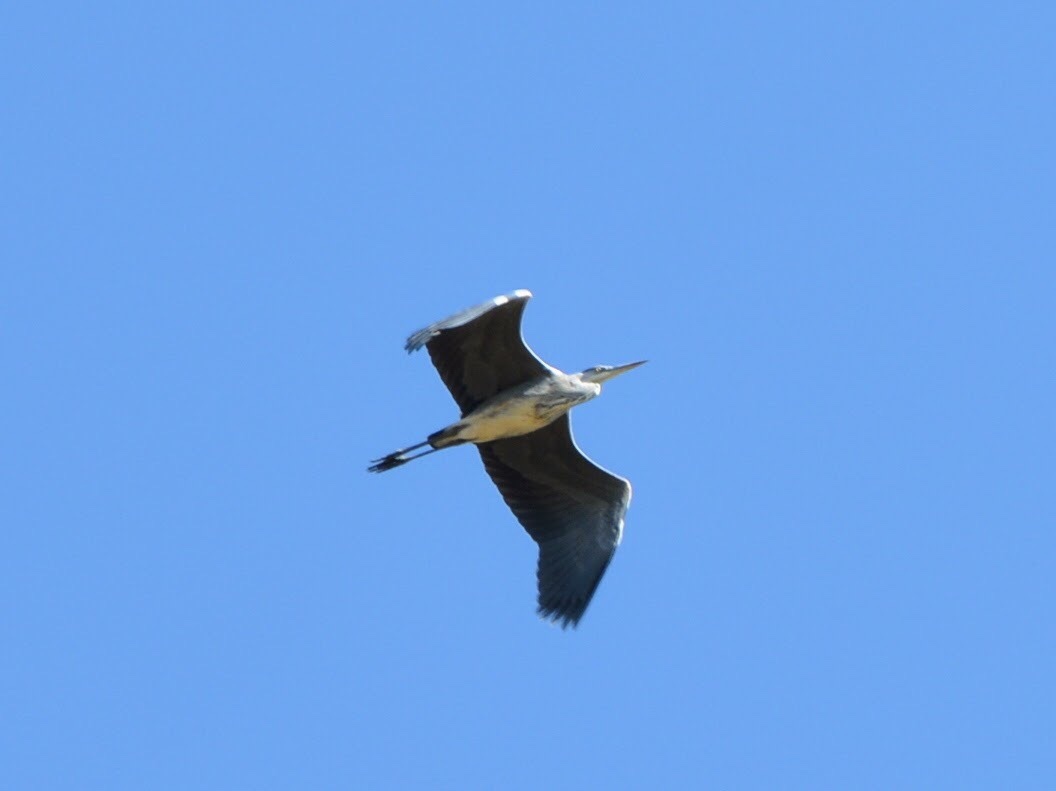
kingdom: Animalia
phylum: Chordata
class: Aves
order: Pelecaniformes
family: Ardeidae
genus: Ardea
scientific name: Ardea cinerea
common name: Grey heron
